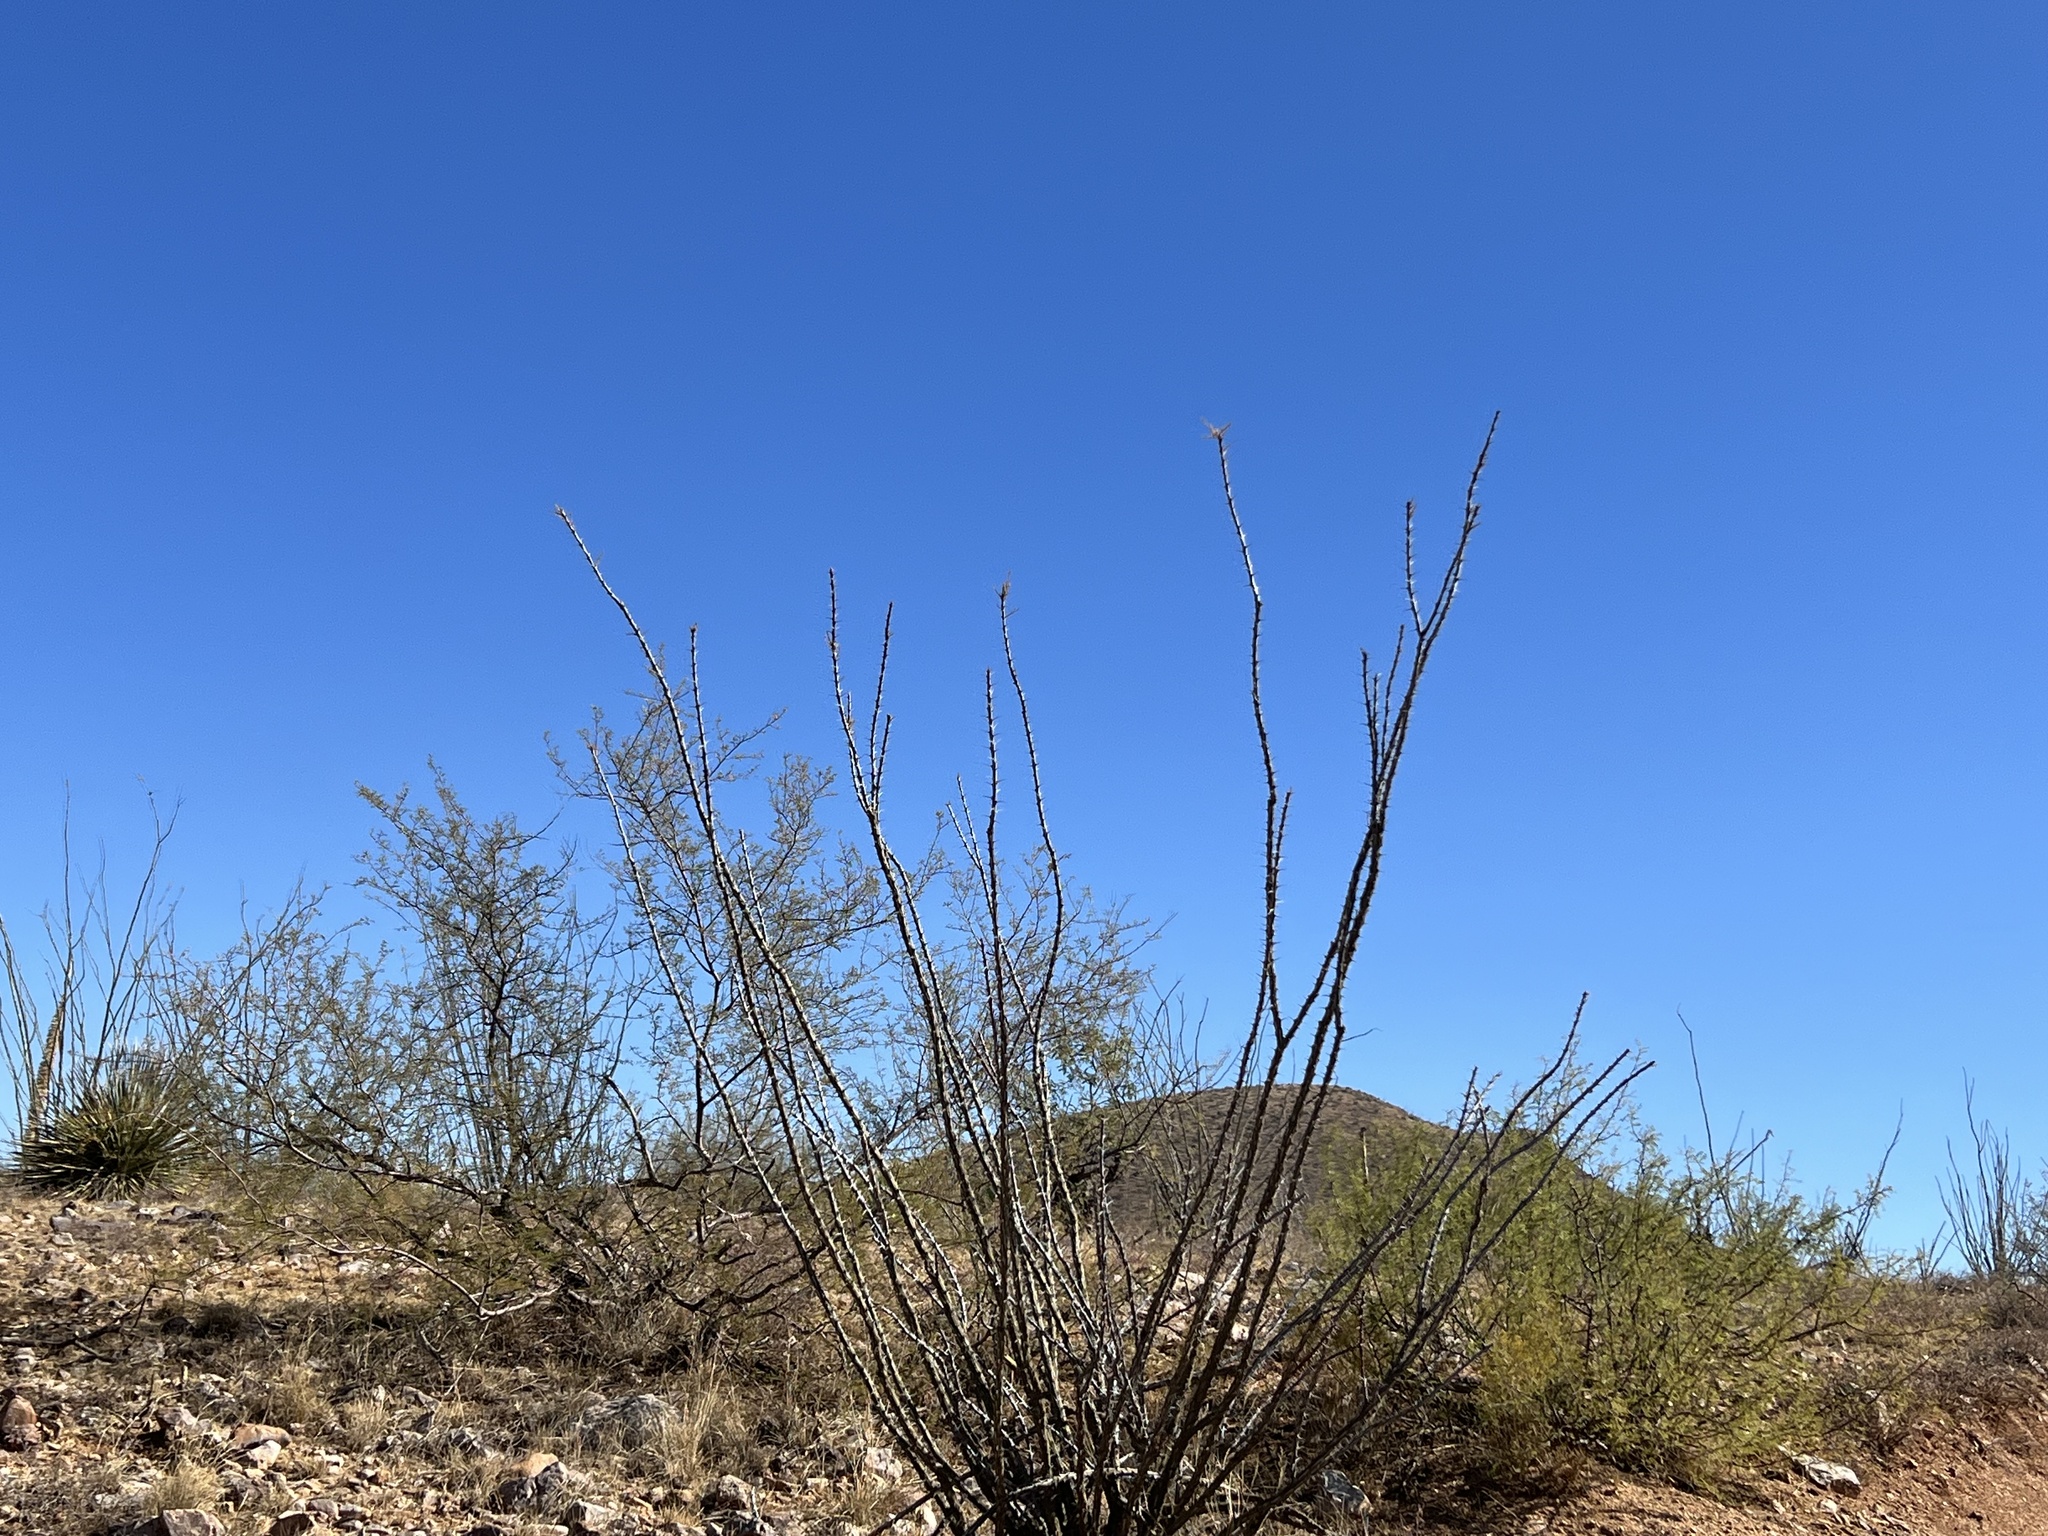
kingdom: Plantae
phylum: Tracheophyta
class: Magnoliopsida
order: Ericales
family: Fouquieriaceae
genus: Fouquieria
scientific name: Fouquieria splendens
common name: Vine-cactus
